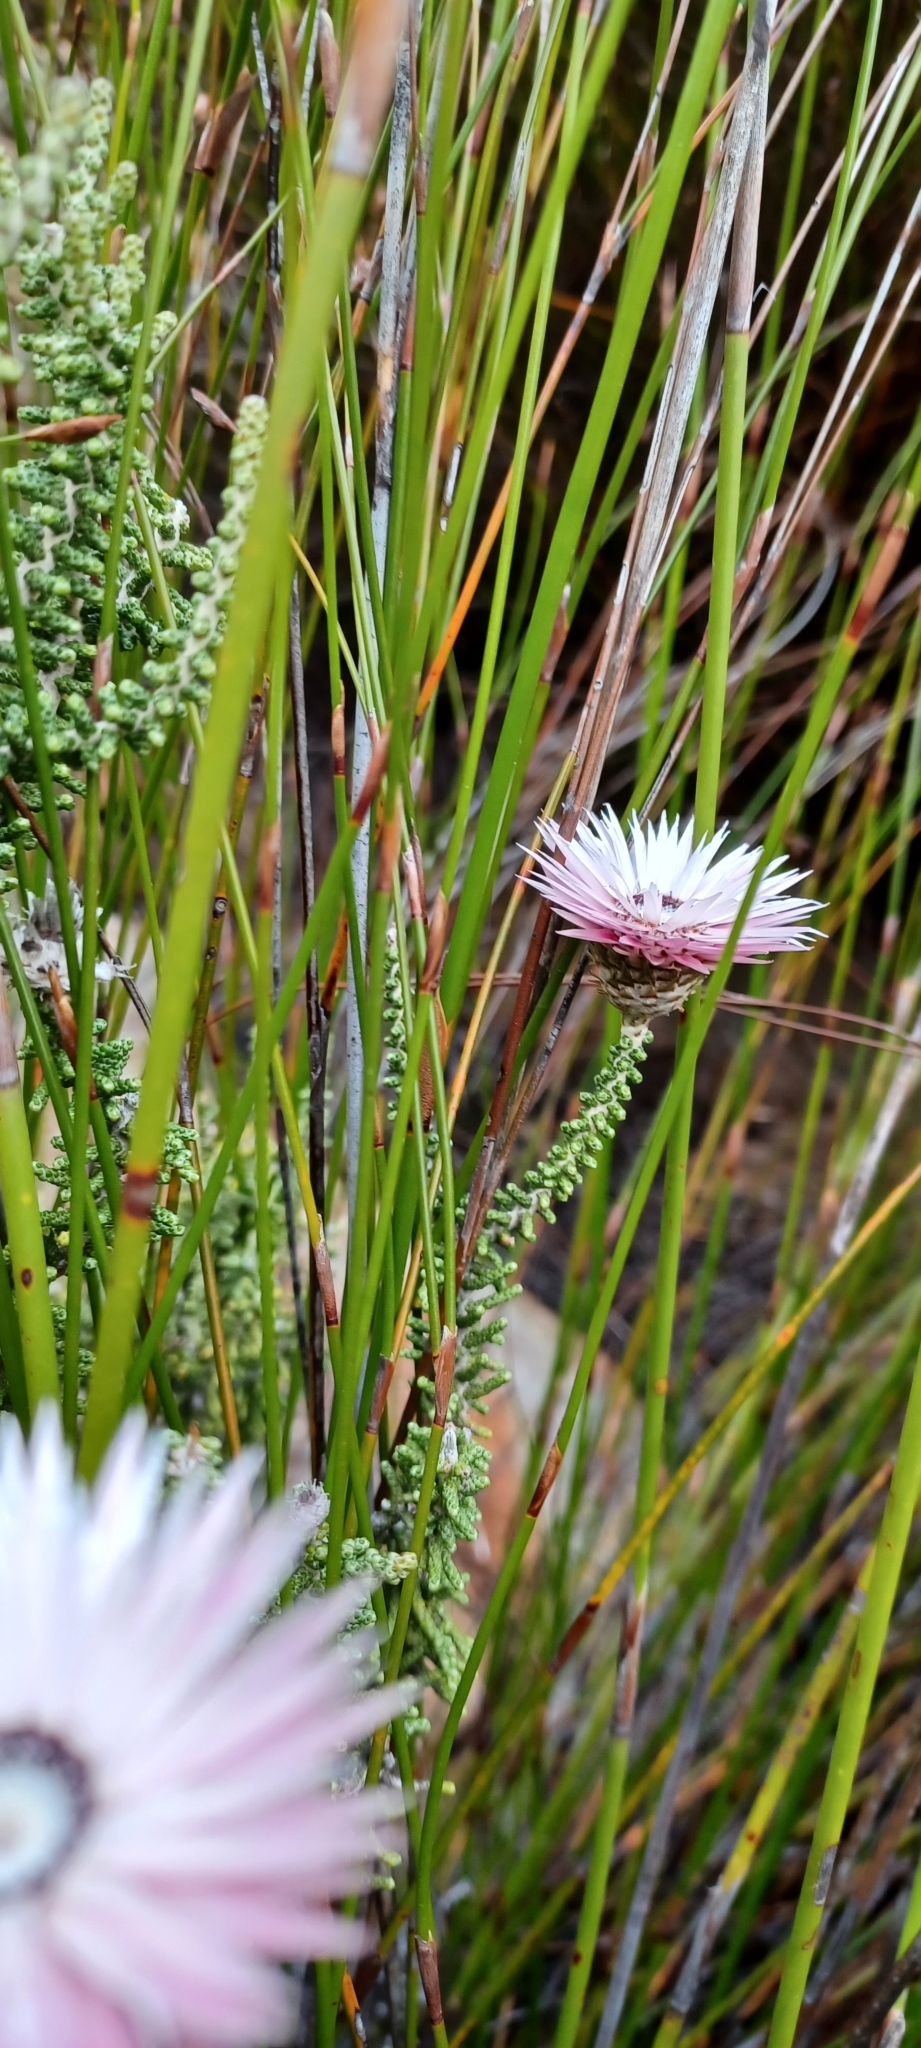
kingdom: Plantae
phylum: Tracheophyta
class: Magnoliopsida
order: Asterales
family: Asteraceae
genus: Phaenocoma
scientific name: Phaenocoma prolifera
